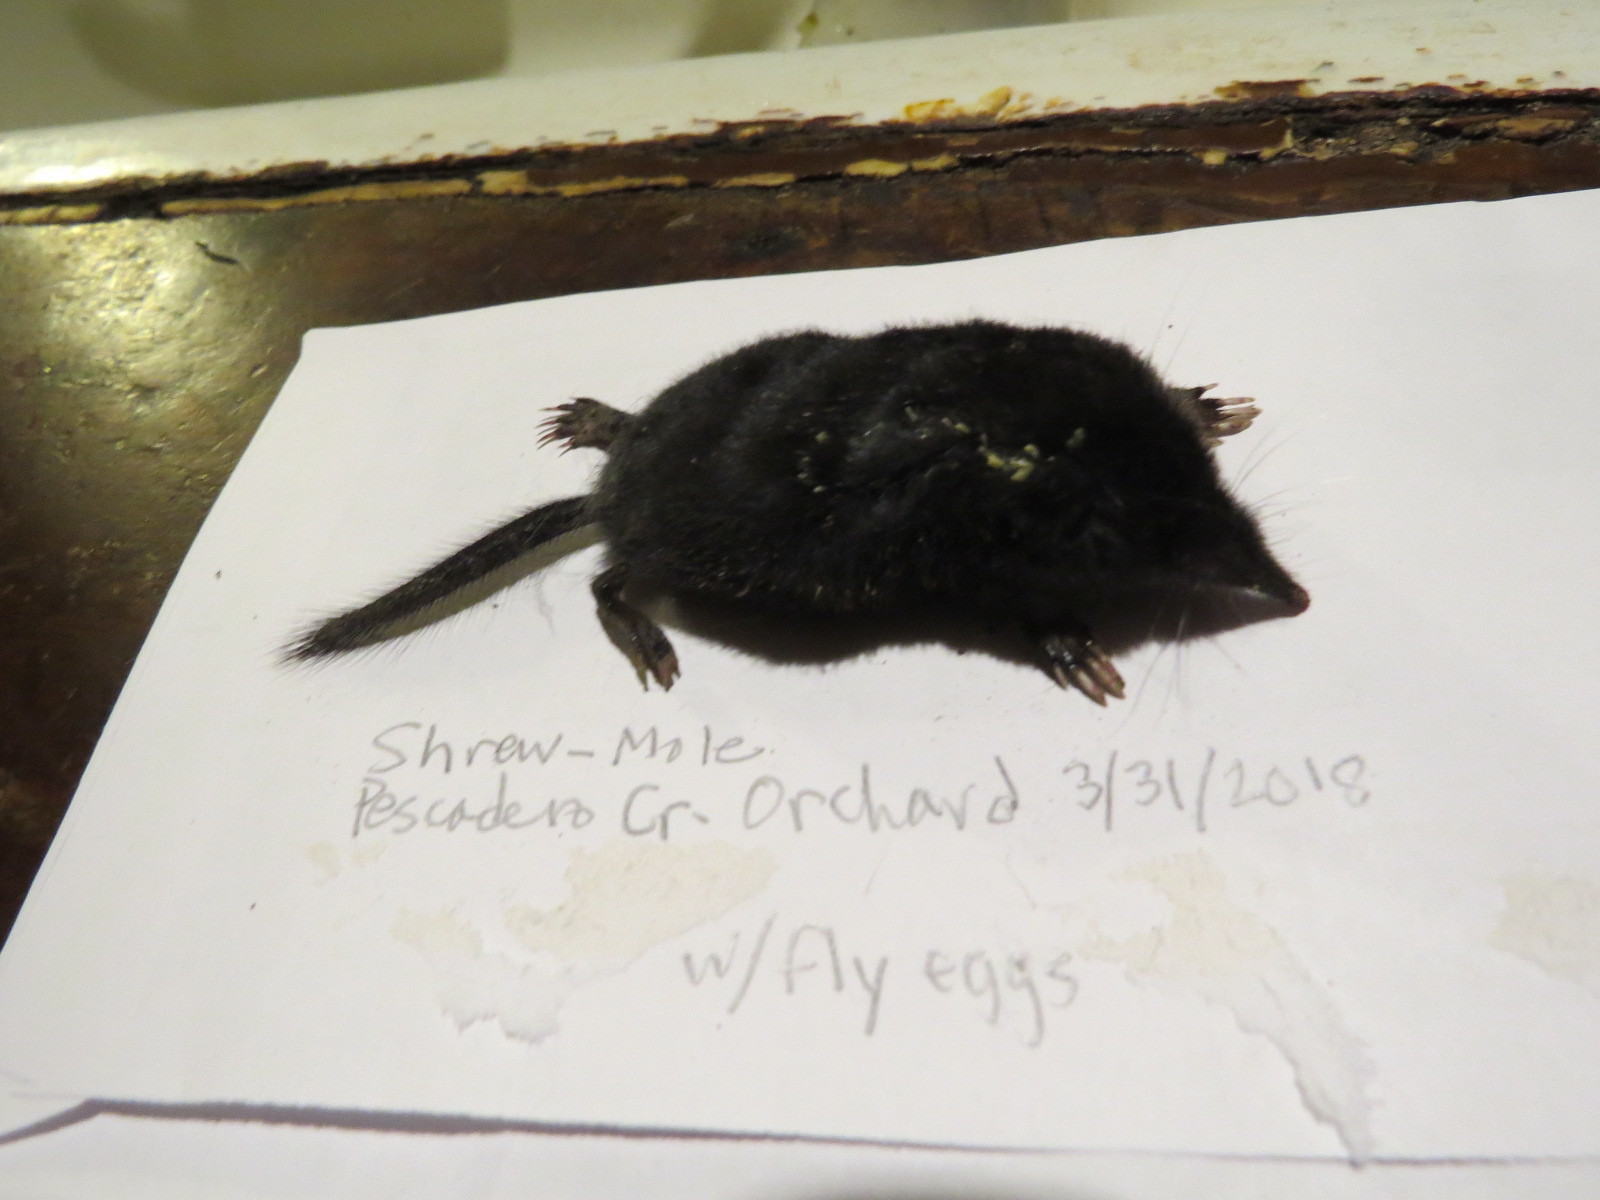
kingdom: Animalia
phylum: Chordata
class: Mammalia
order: Soricomorpha
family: Talpidae
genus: Neurotrichus
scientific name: Neurotrichus gibbsii
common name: American shrew mole
